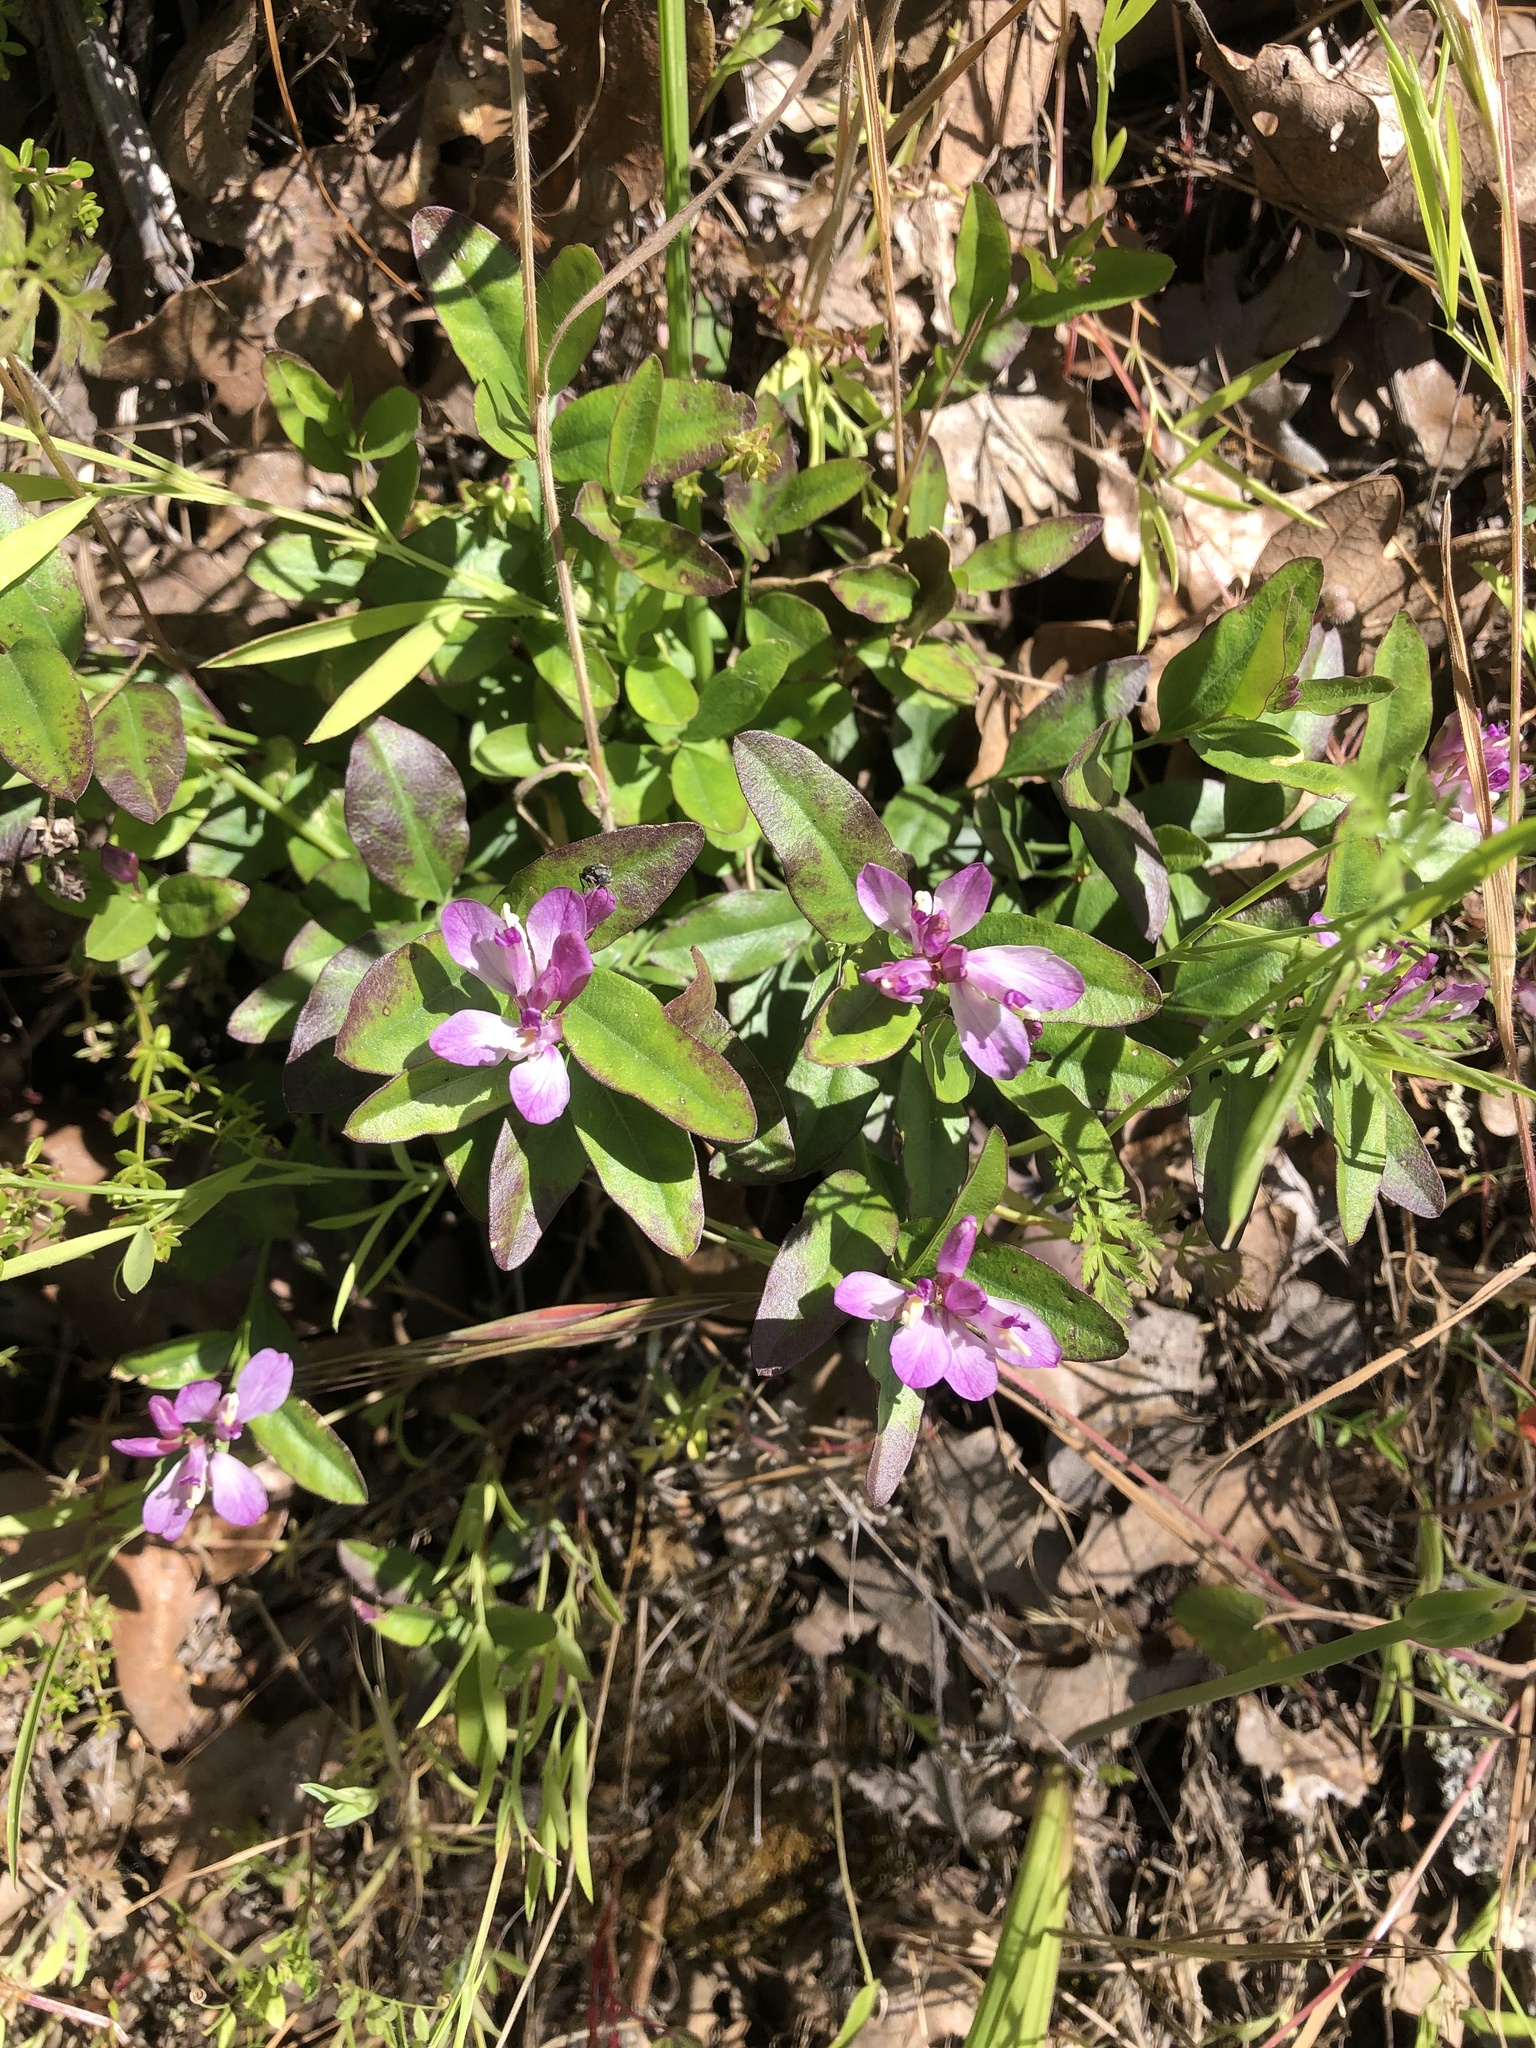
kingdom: Plantae
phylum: Tracheophyta
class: Magnoliopsida
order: Fabales
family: Polygalaceae
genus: Rhinotropis
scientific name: Rhinotropis californica
